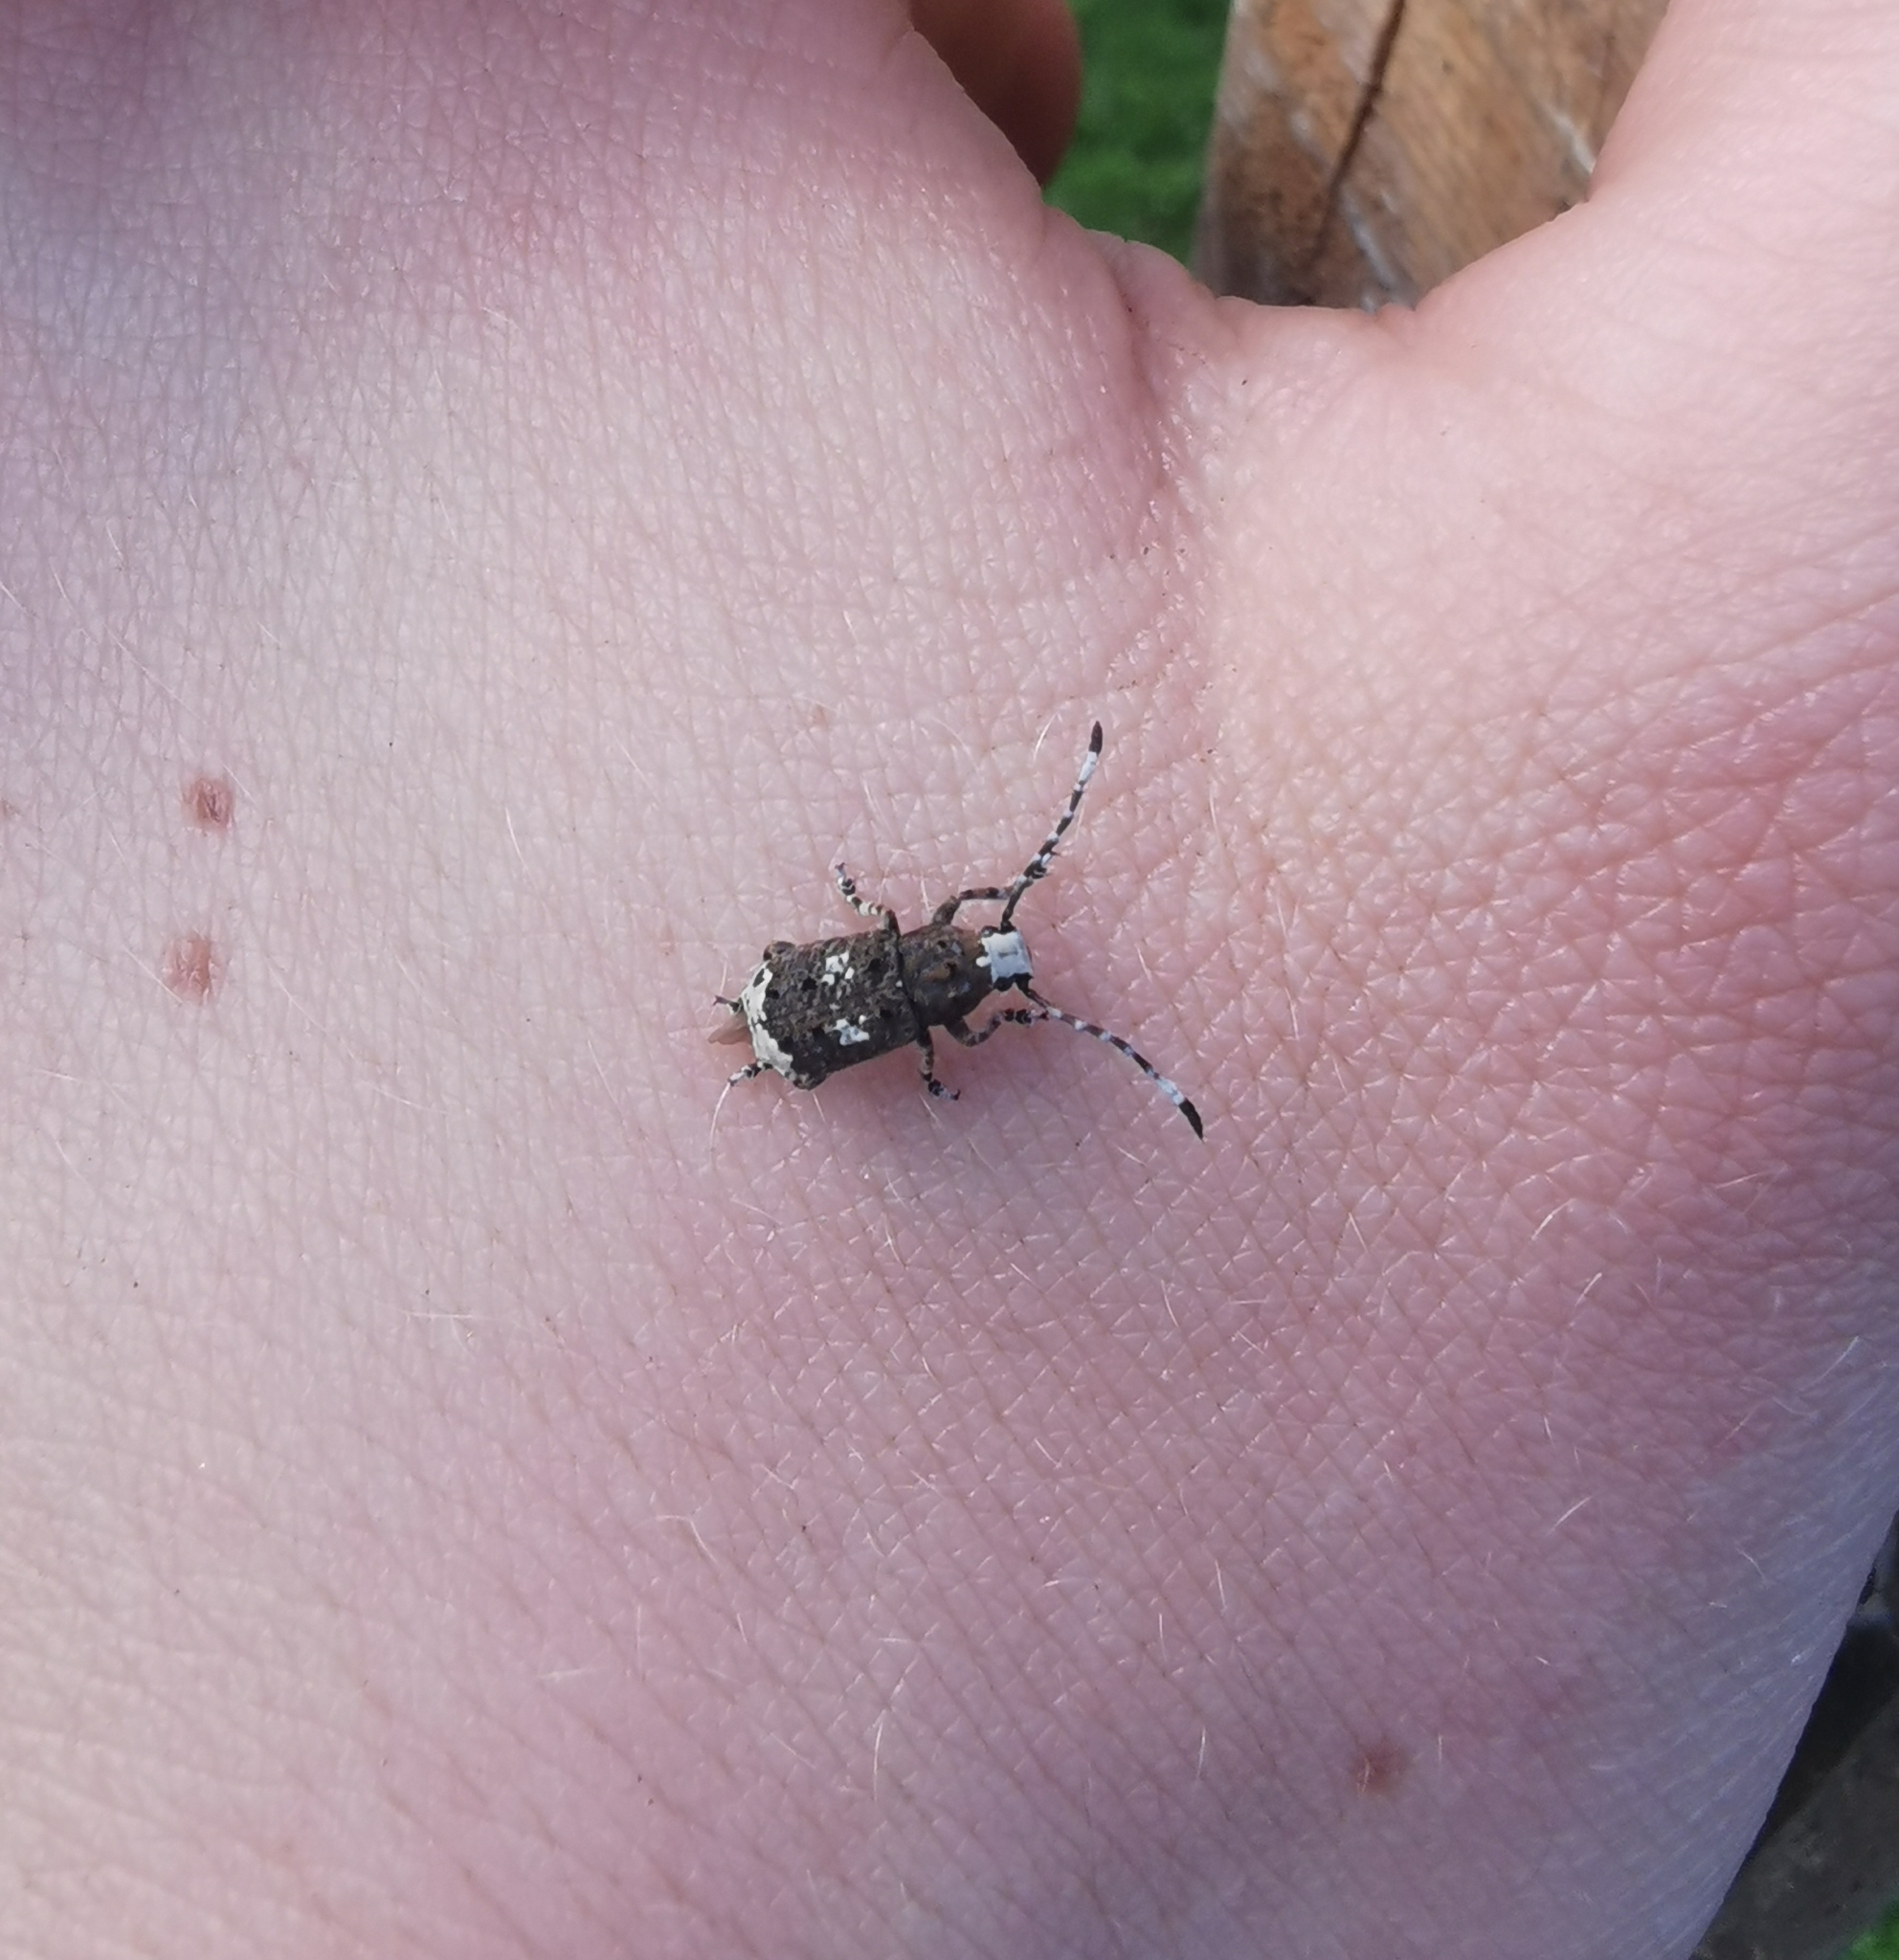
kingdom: Animalia
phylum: Arthropoda
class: Insecta
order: Coleoptera
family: Anthribidae
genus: Platystomos
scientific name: Platystomos albinus
